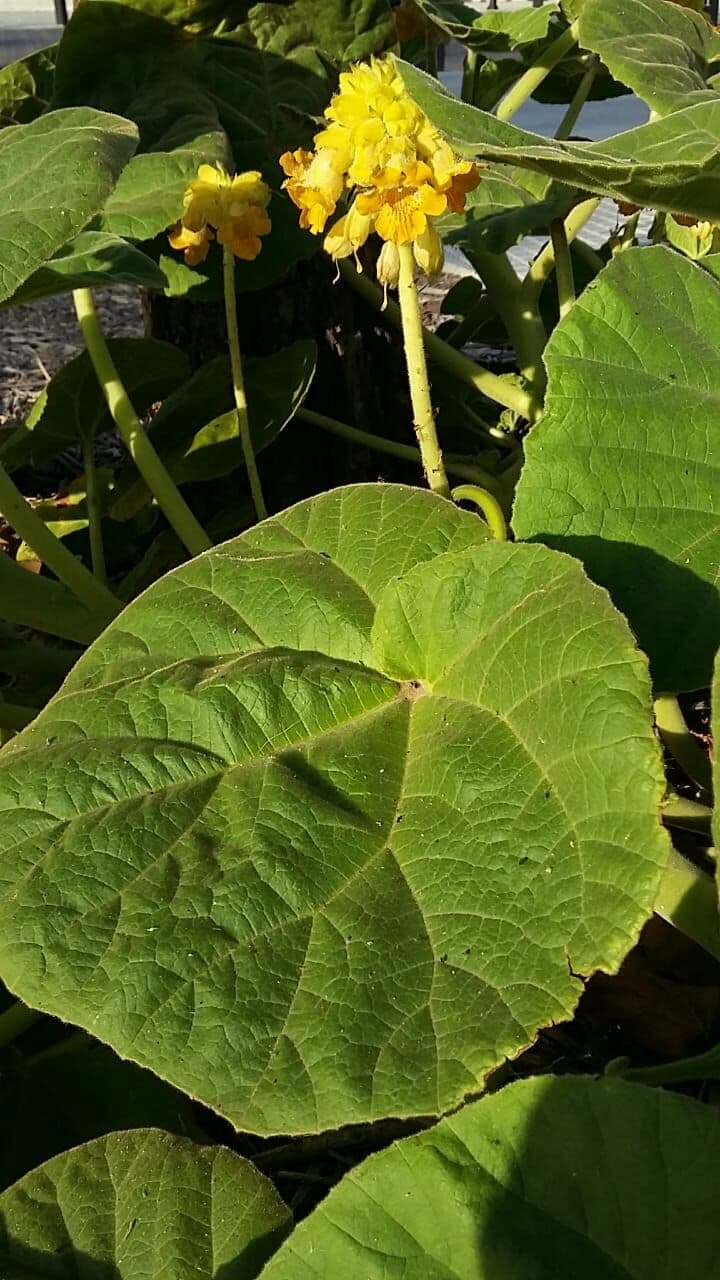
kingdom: Plantae
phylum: Tracheophyta
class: Magnoliopsida
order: Lamiales
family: Martyniaceae
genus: Ibicella
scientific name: Ibicella lutea
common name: Yellow unicorn-plant
